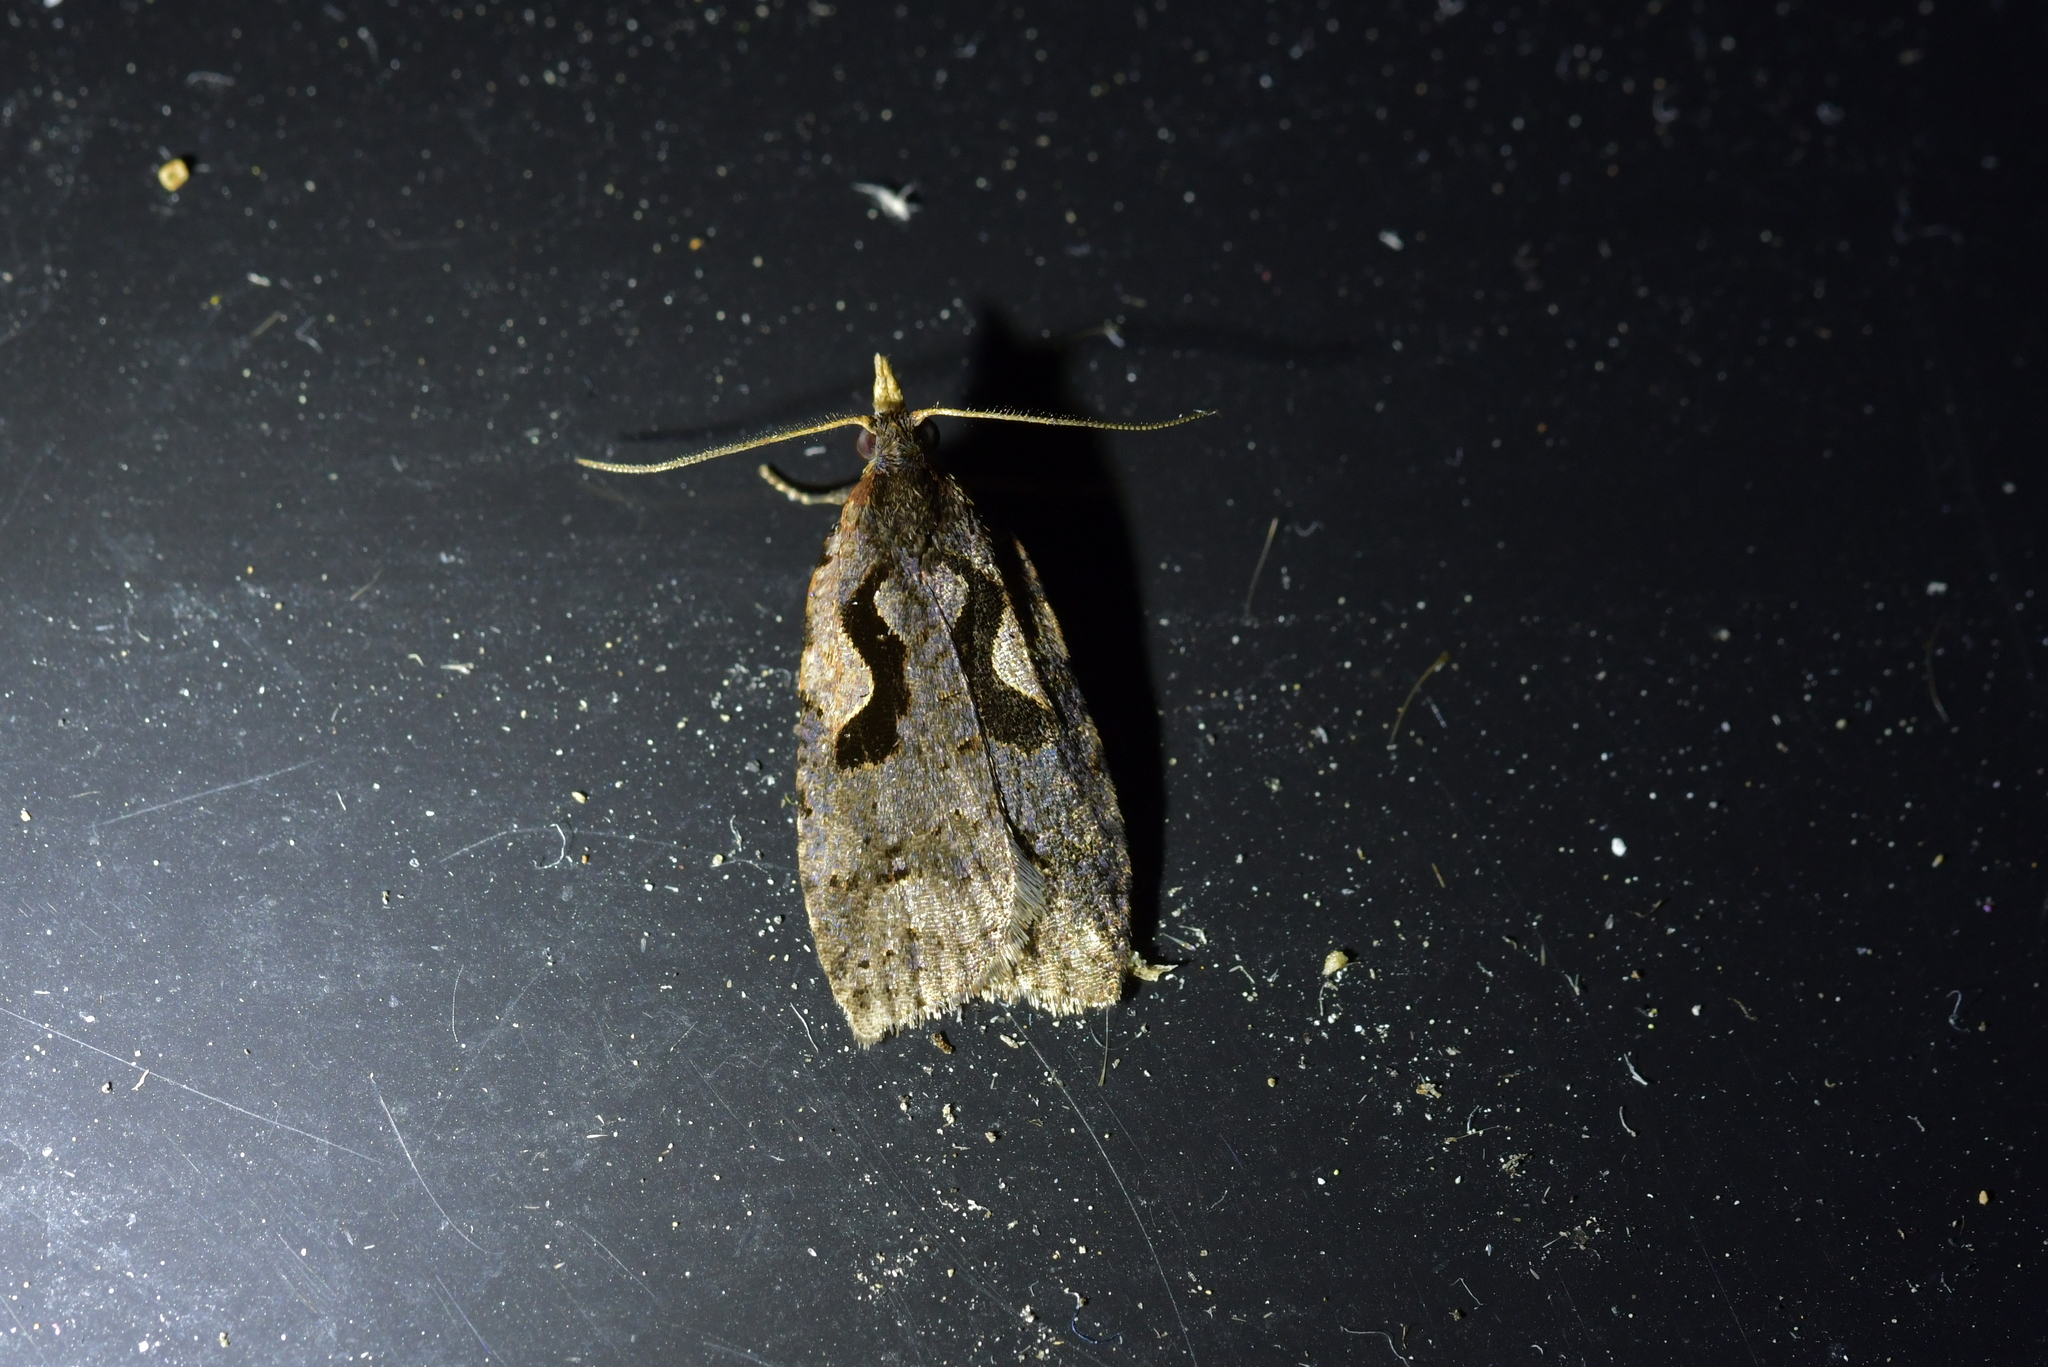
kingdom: Animalia
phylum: Arthropoda
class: Insecta
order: Lepidoptera
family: Tortricidae
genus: Cnephasia
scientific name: Cnephasia jactatana
